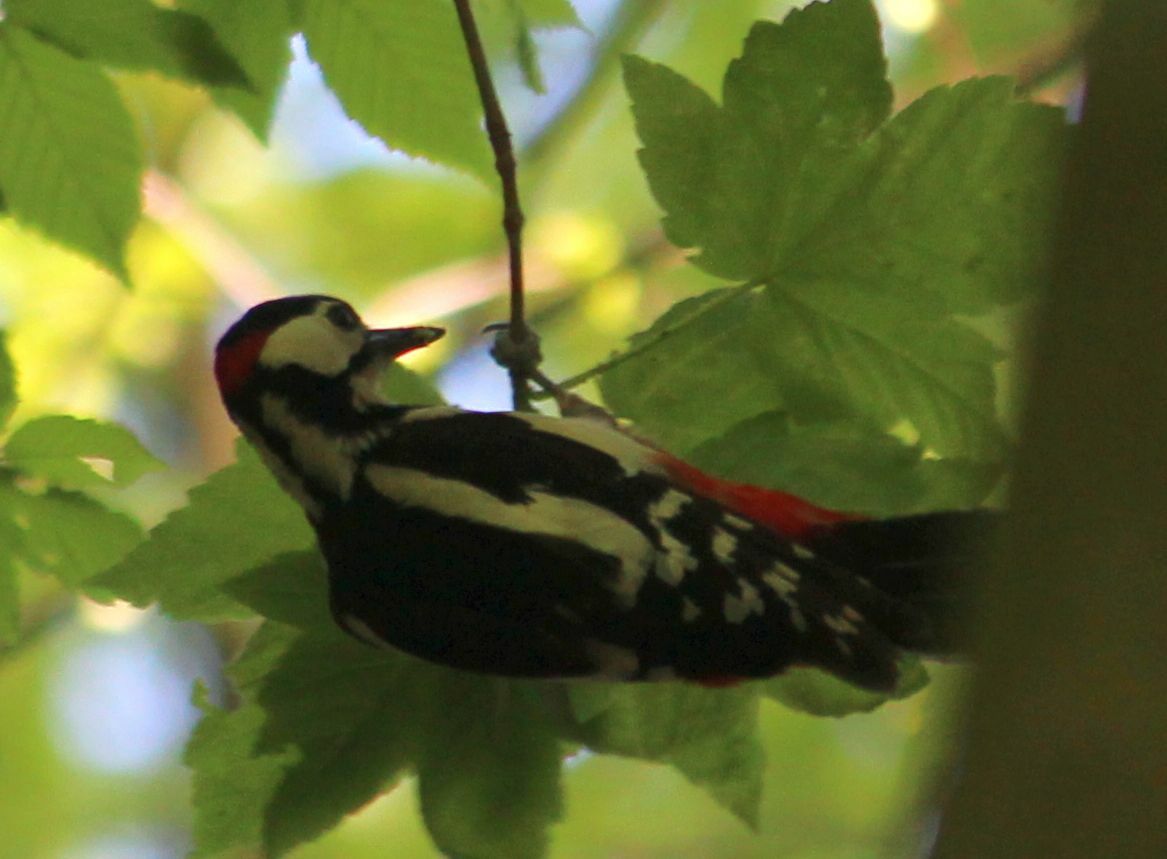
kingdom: Animalia
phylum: Chordata
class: Aves
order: Piciformes
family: Picidae
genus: Dendrocopos
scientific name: Dendrocopos major
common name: Great spotted woodpecker
